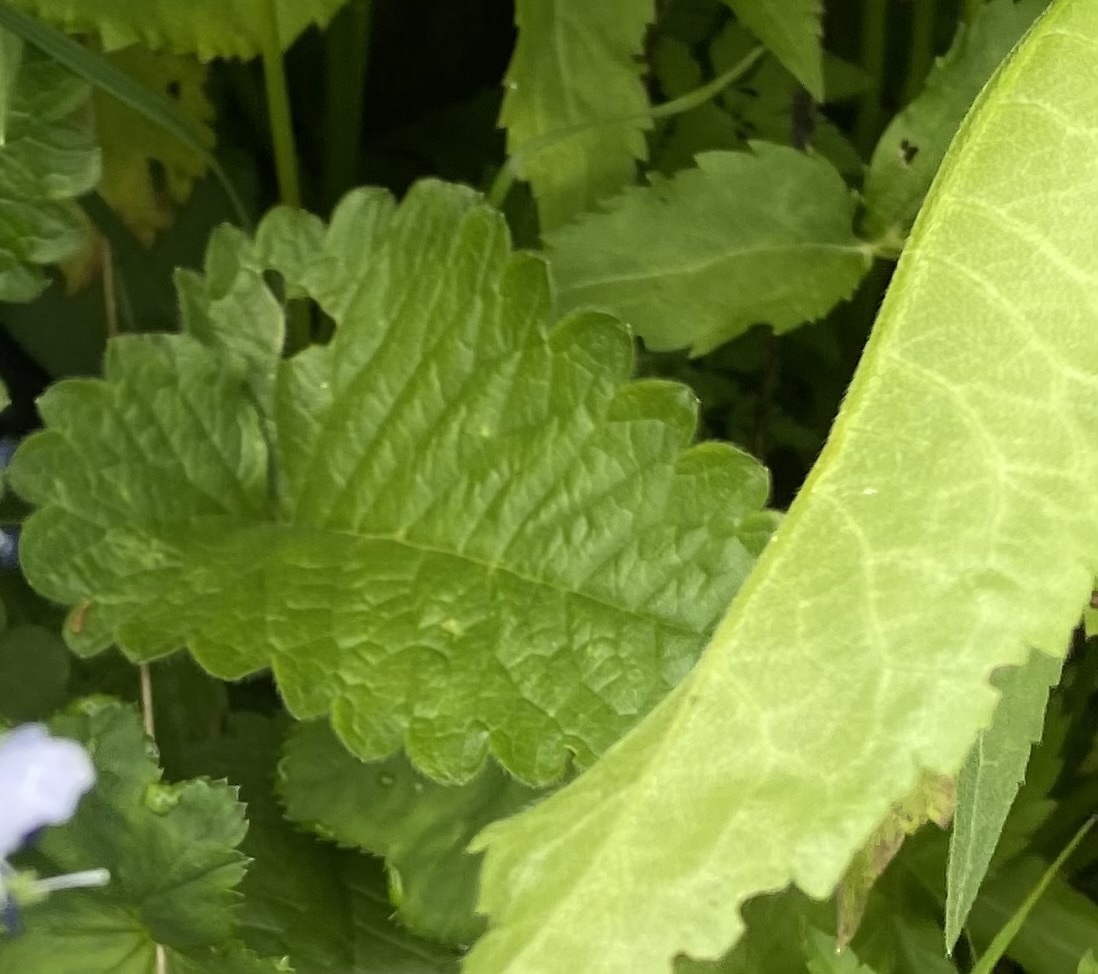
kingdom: Plantae
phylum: Tracheophyta
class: Magnoliopsida
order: Lamiales
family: Lamiaceae
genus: Betonica
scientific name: Betonica macrantha
